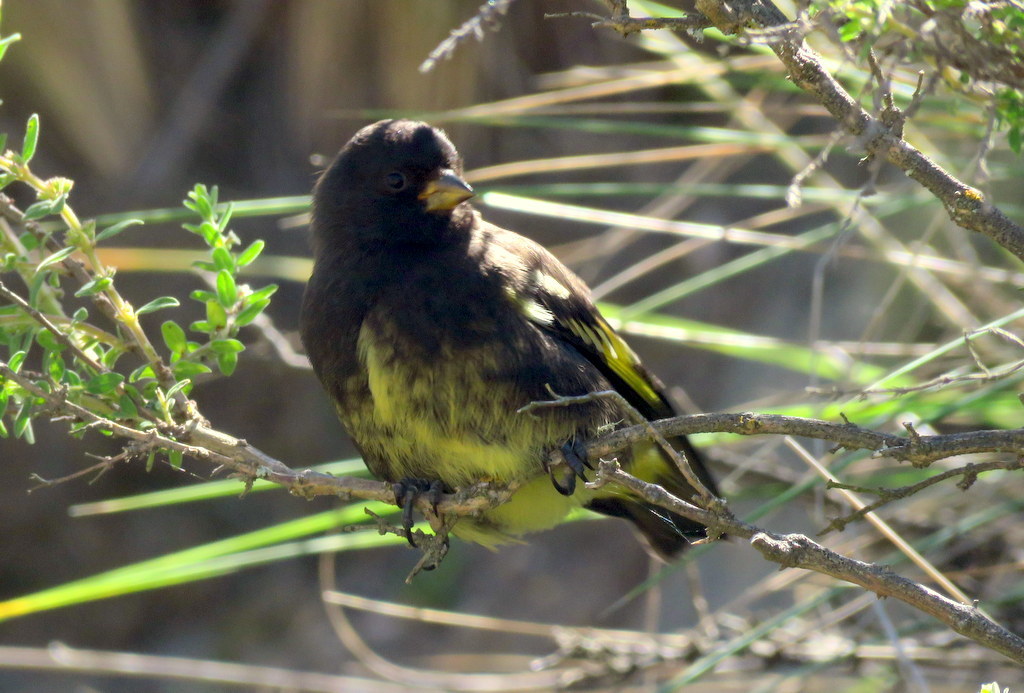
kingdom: Animalia
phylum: Chordata
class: Aves
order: Passeriformes
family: Fringillidae
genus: Spinus
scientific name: Spinus atratus
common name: Black siskin
